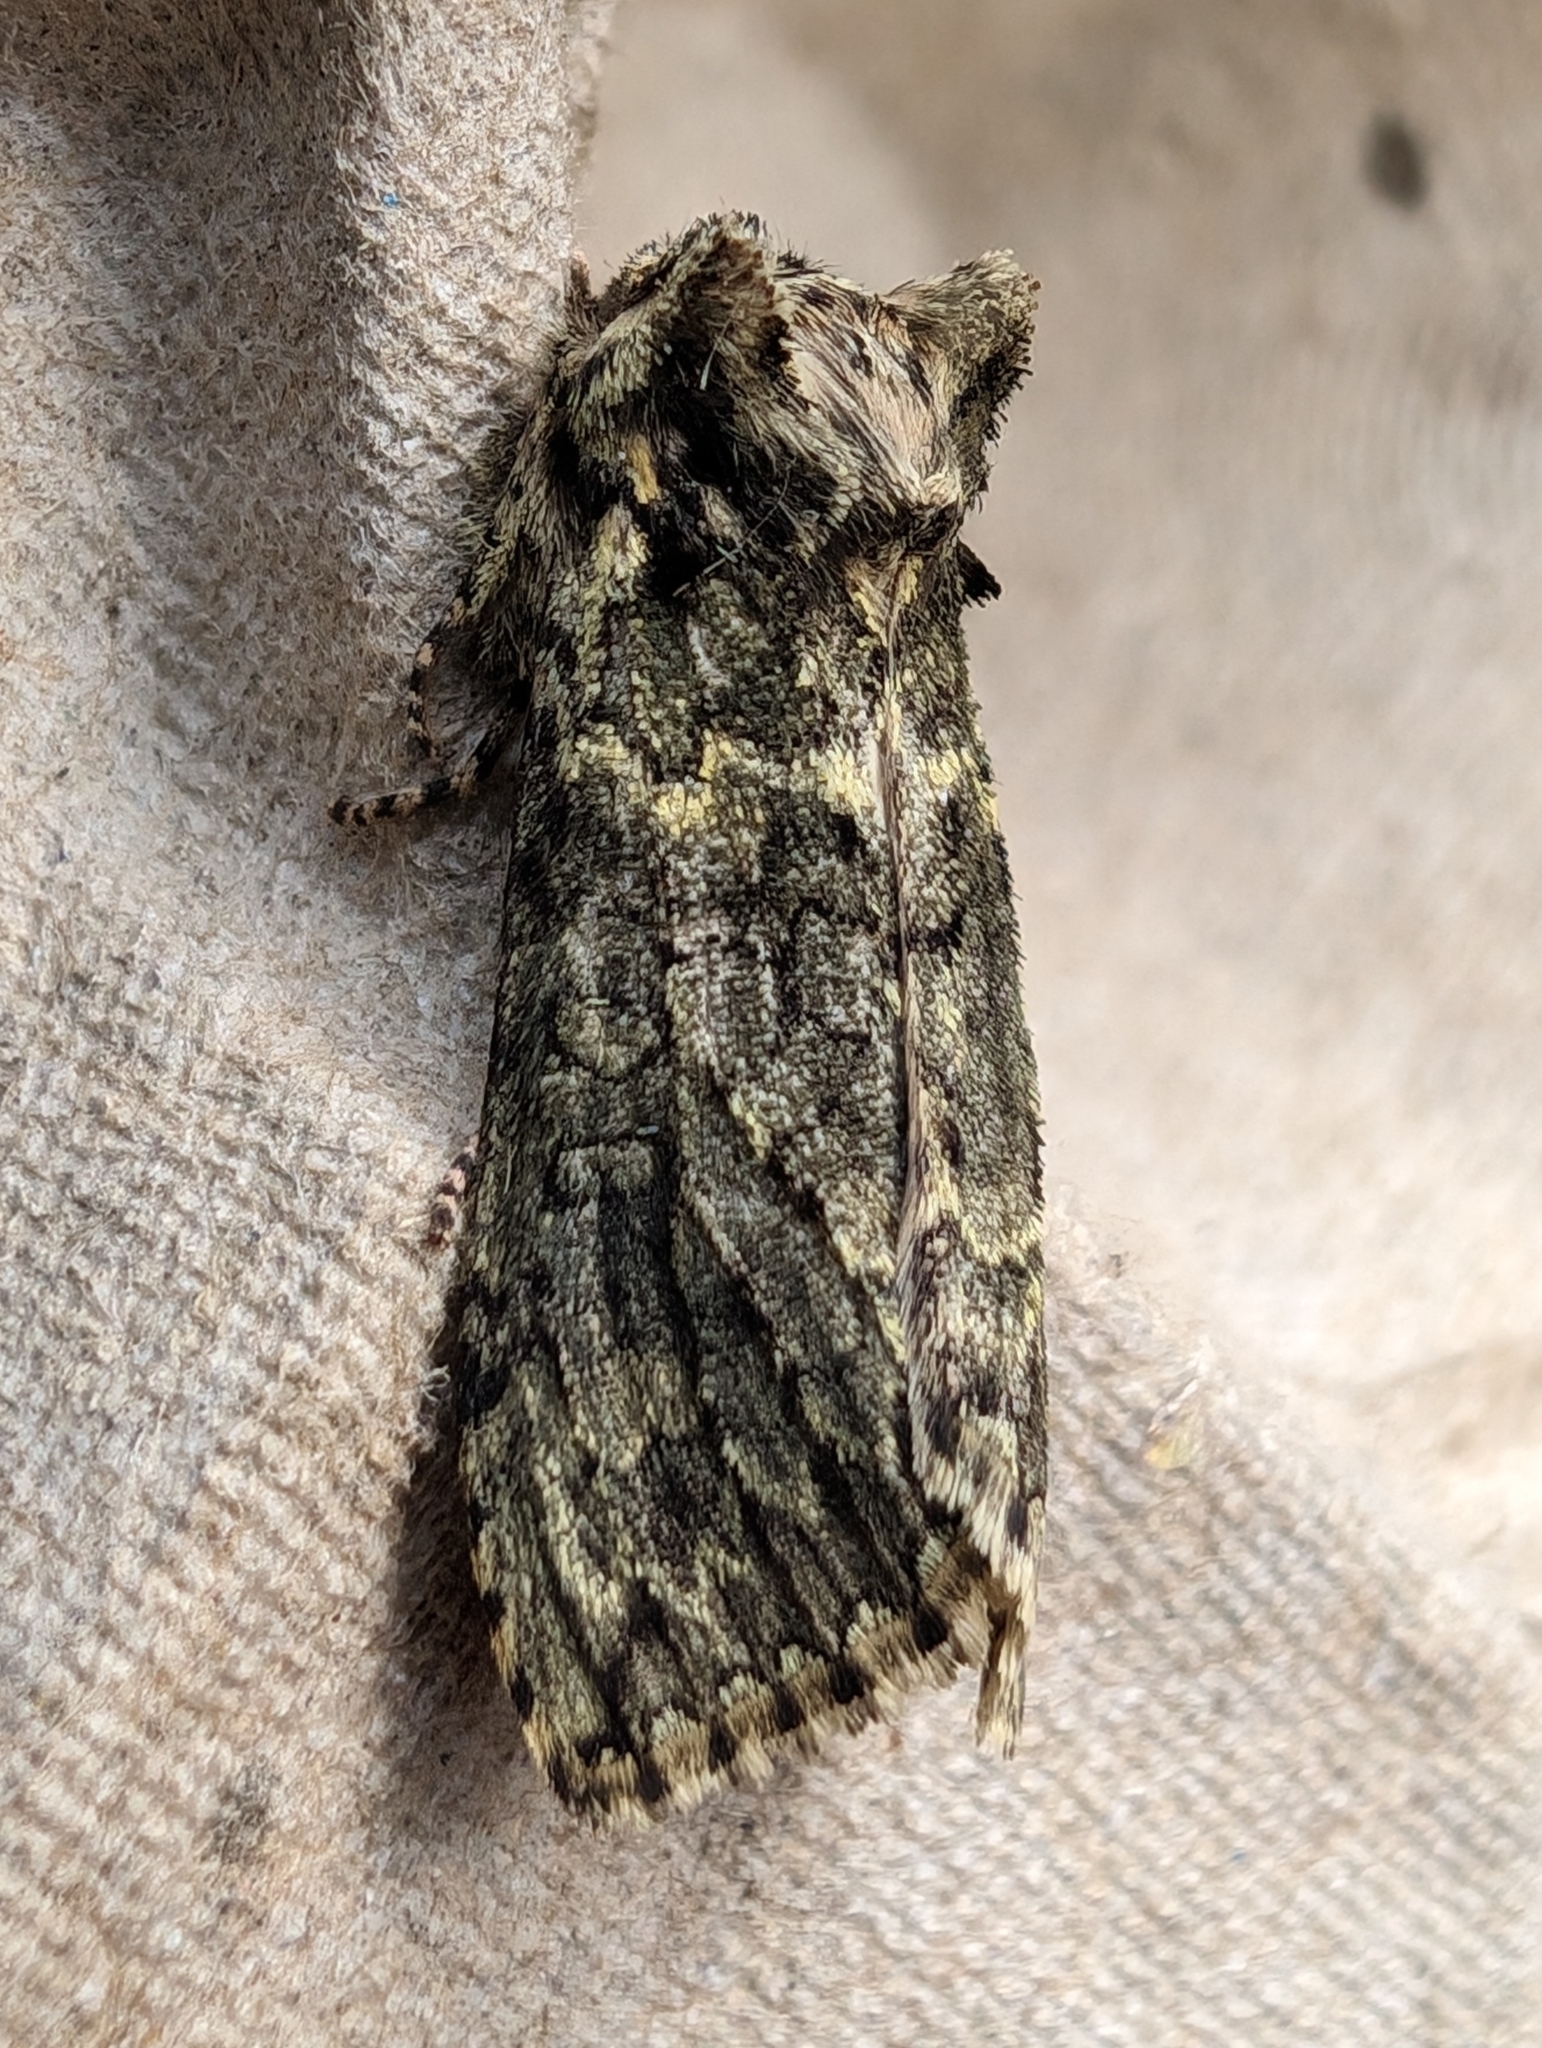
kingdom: Animalia
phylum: Arthropoda
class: Insecta
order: Lepidoptera
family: Drepanidae
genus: Polyploca
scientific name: Polyploca ridens
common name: Frosted green
